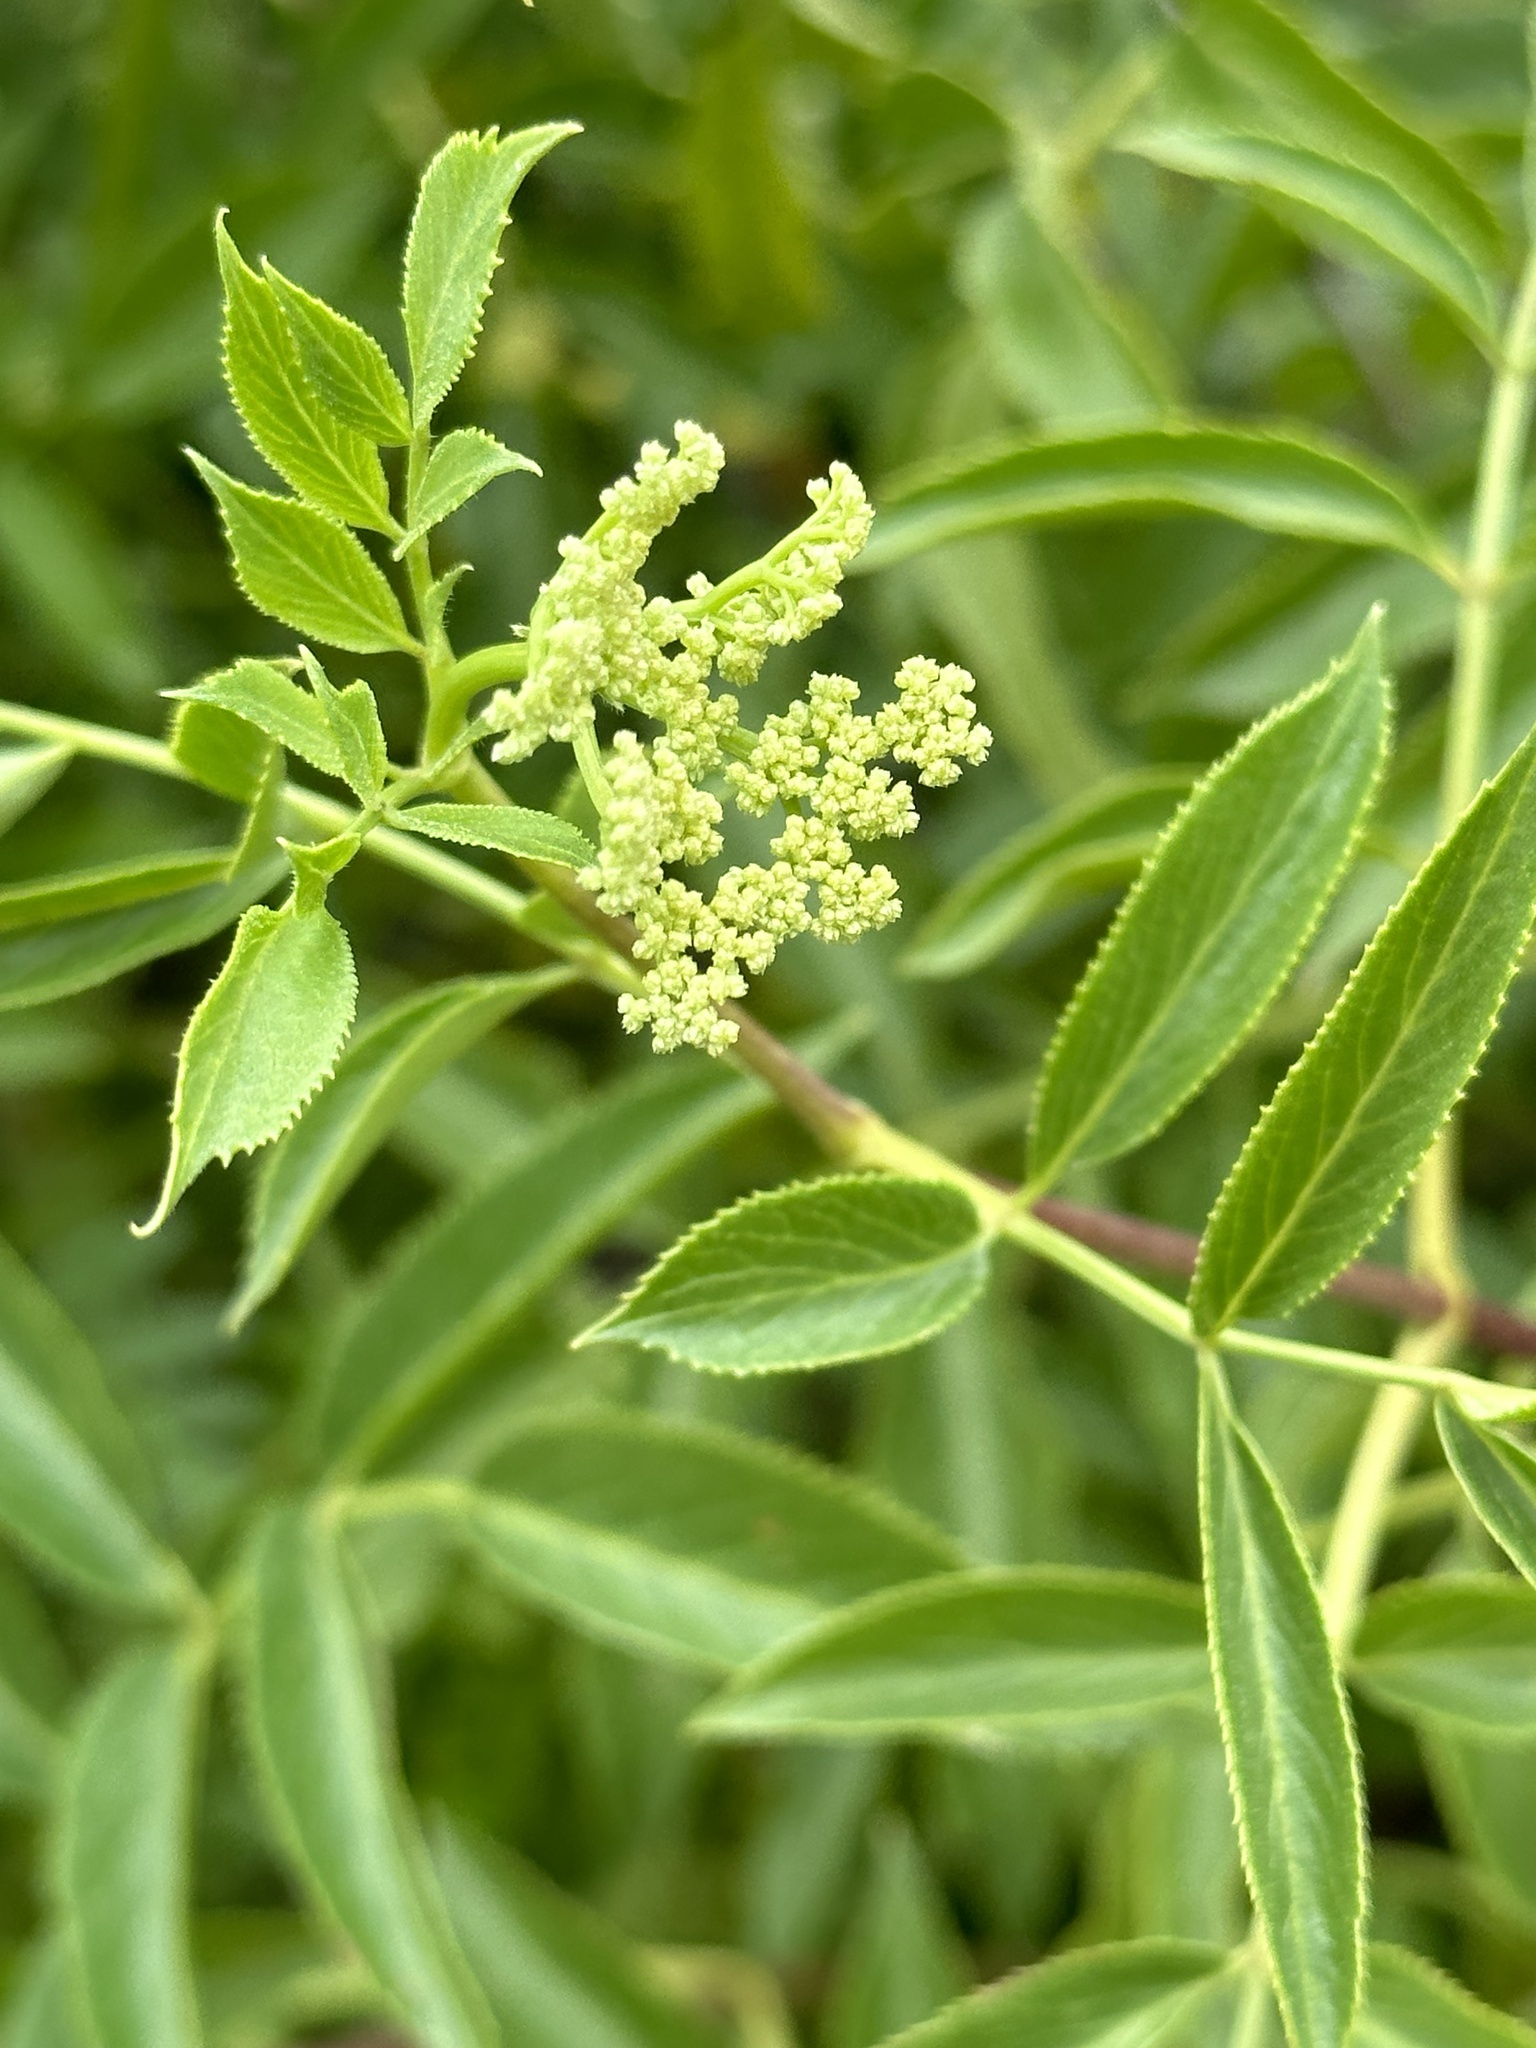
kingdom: Plantae
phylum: Tracheophyta
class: Magnoliopsida
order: Dipsacales
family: Viburnaceae
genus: Sambucus
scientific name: Sambucus cerulea
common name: Blue elder
